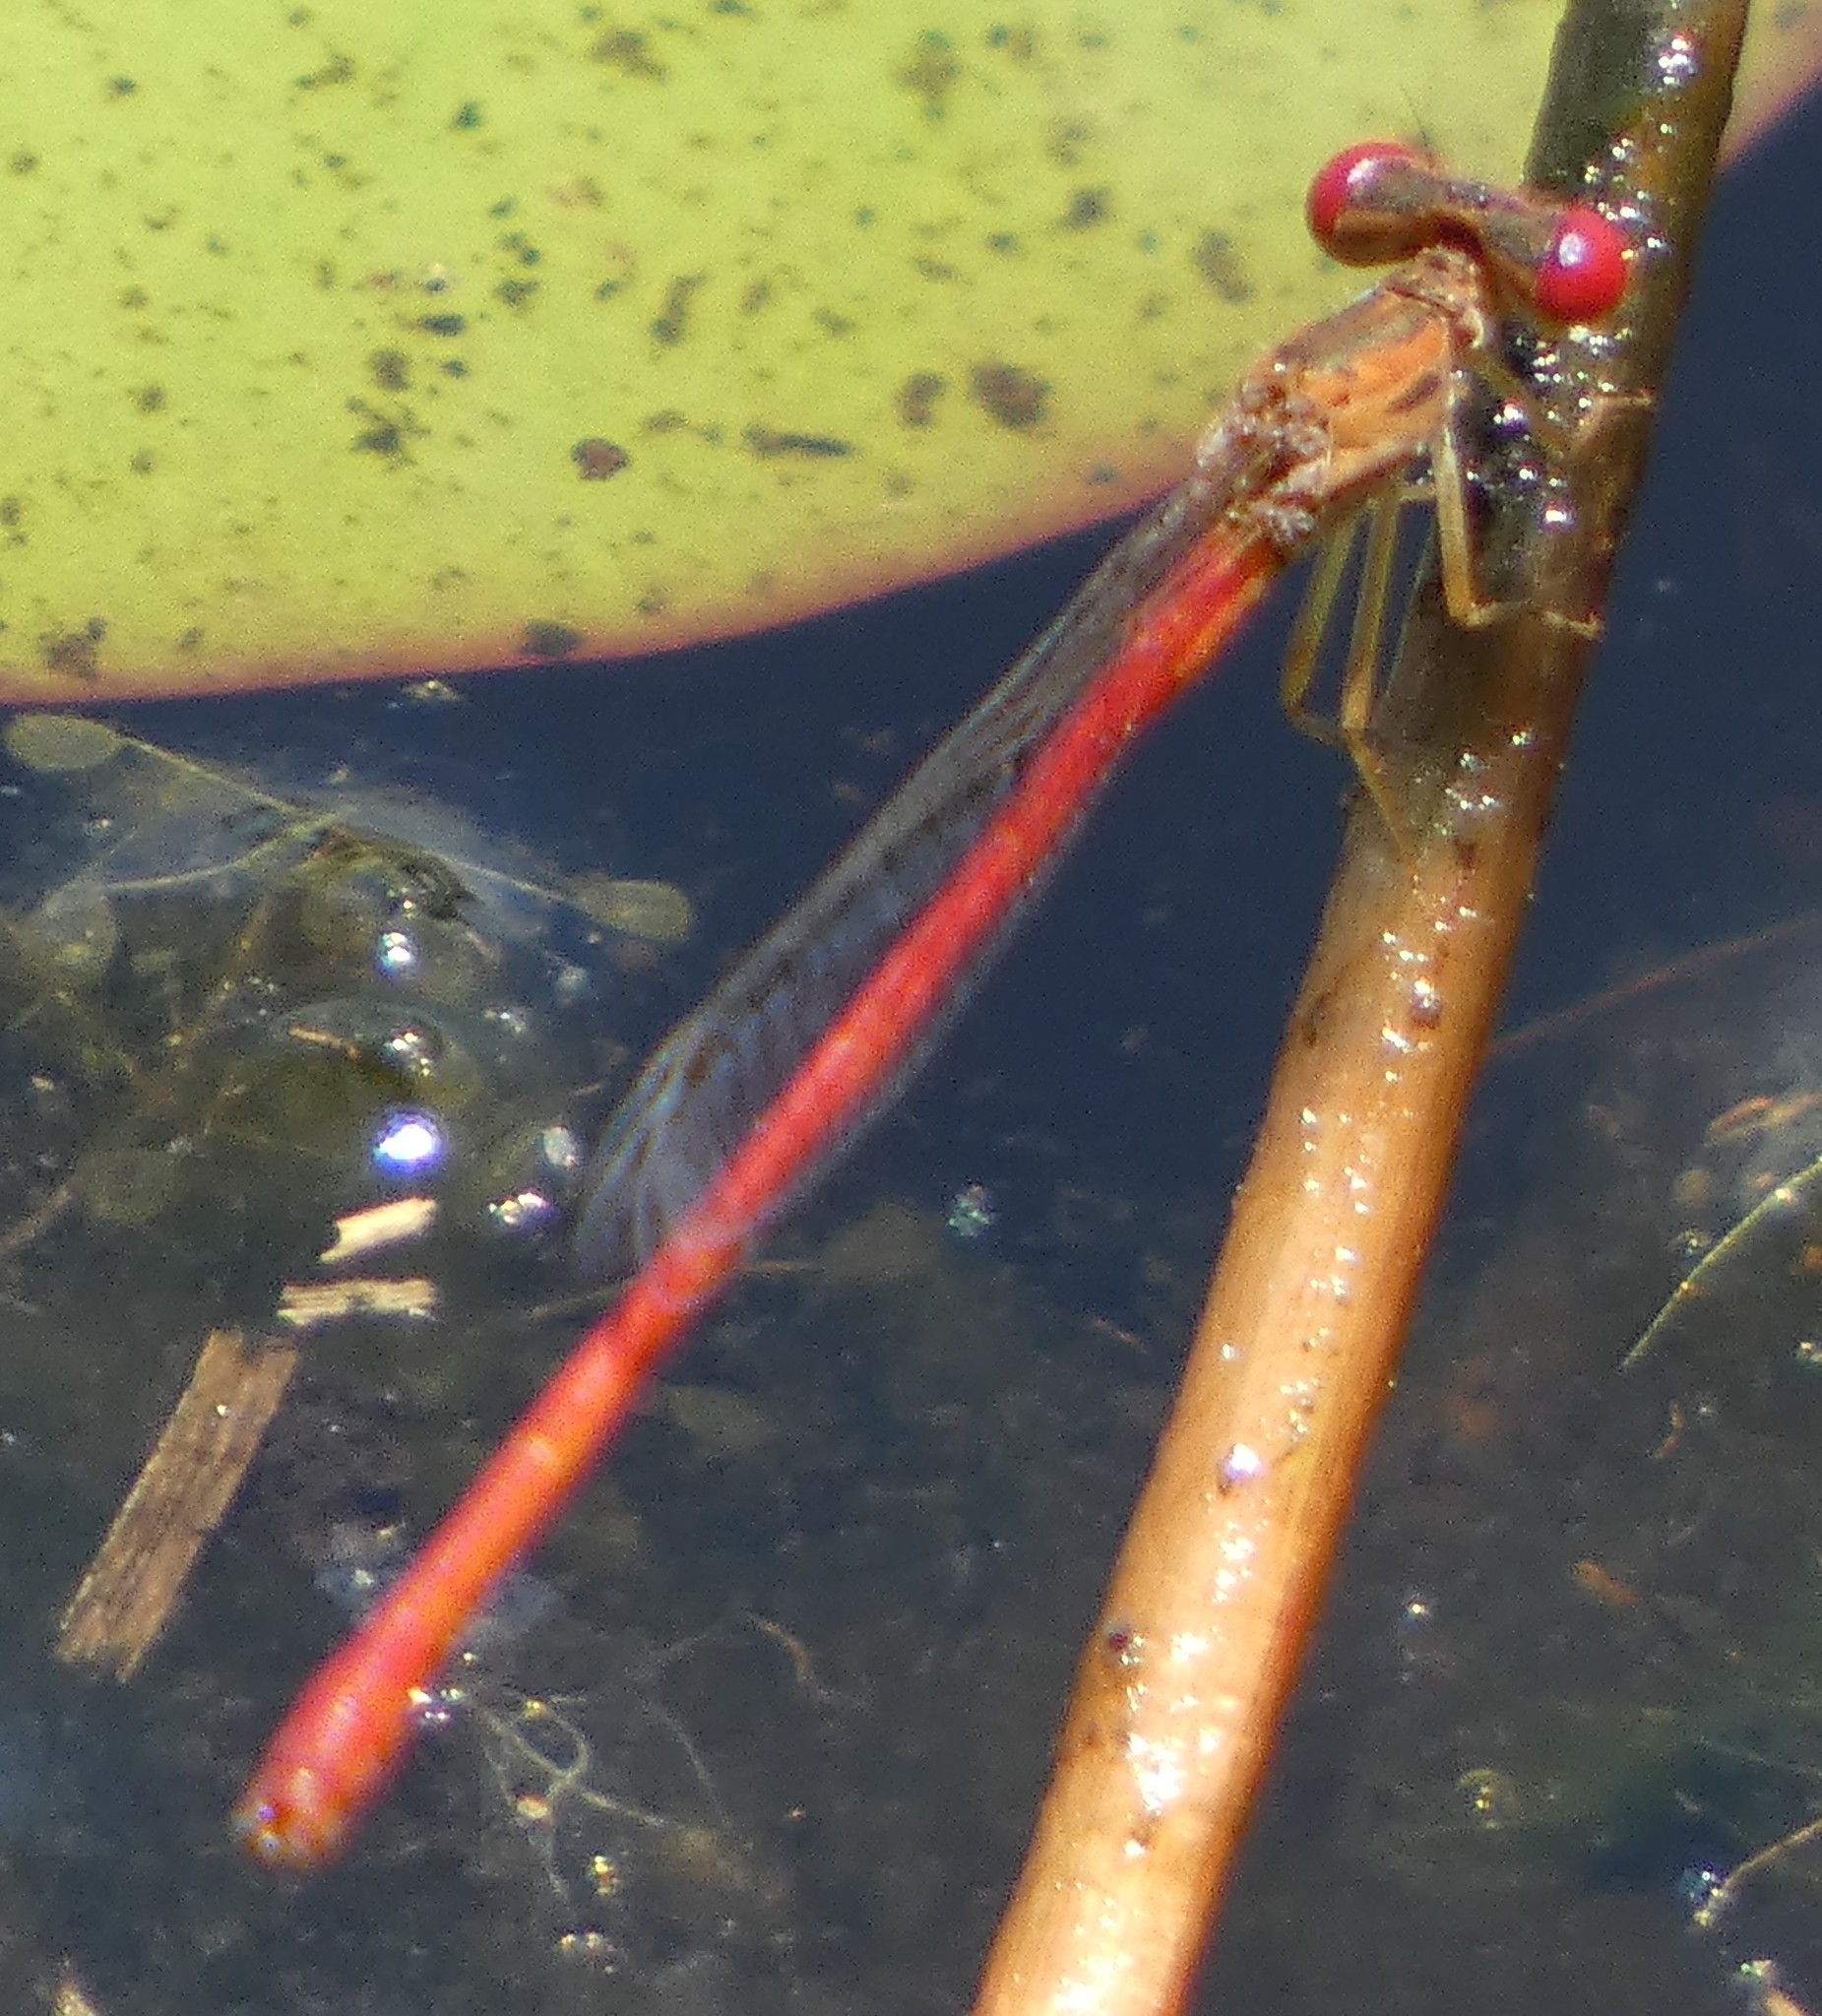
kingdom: Animalia
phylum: Arthropoda
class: Insecta
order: Odonata
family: Coenagrionidae
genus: Telebasis
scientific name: Telebasis byersi
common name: Duckweed firetail
